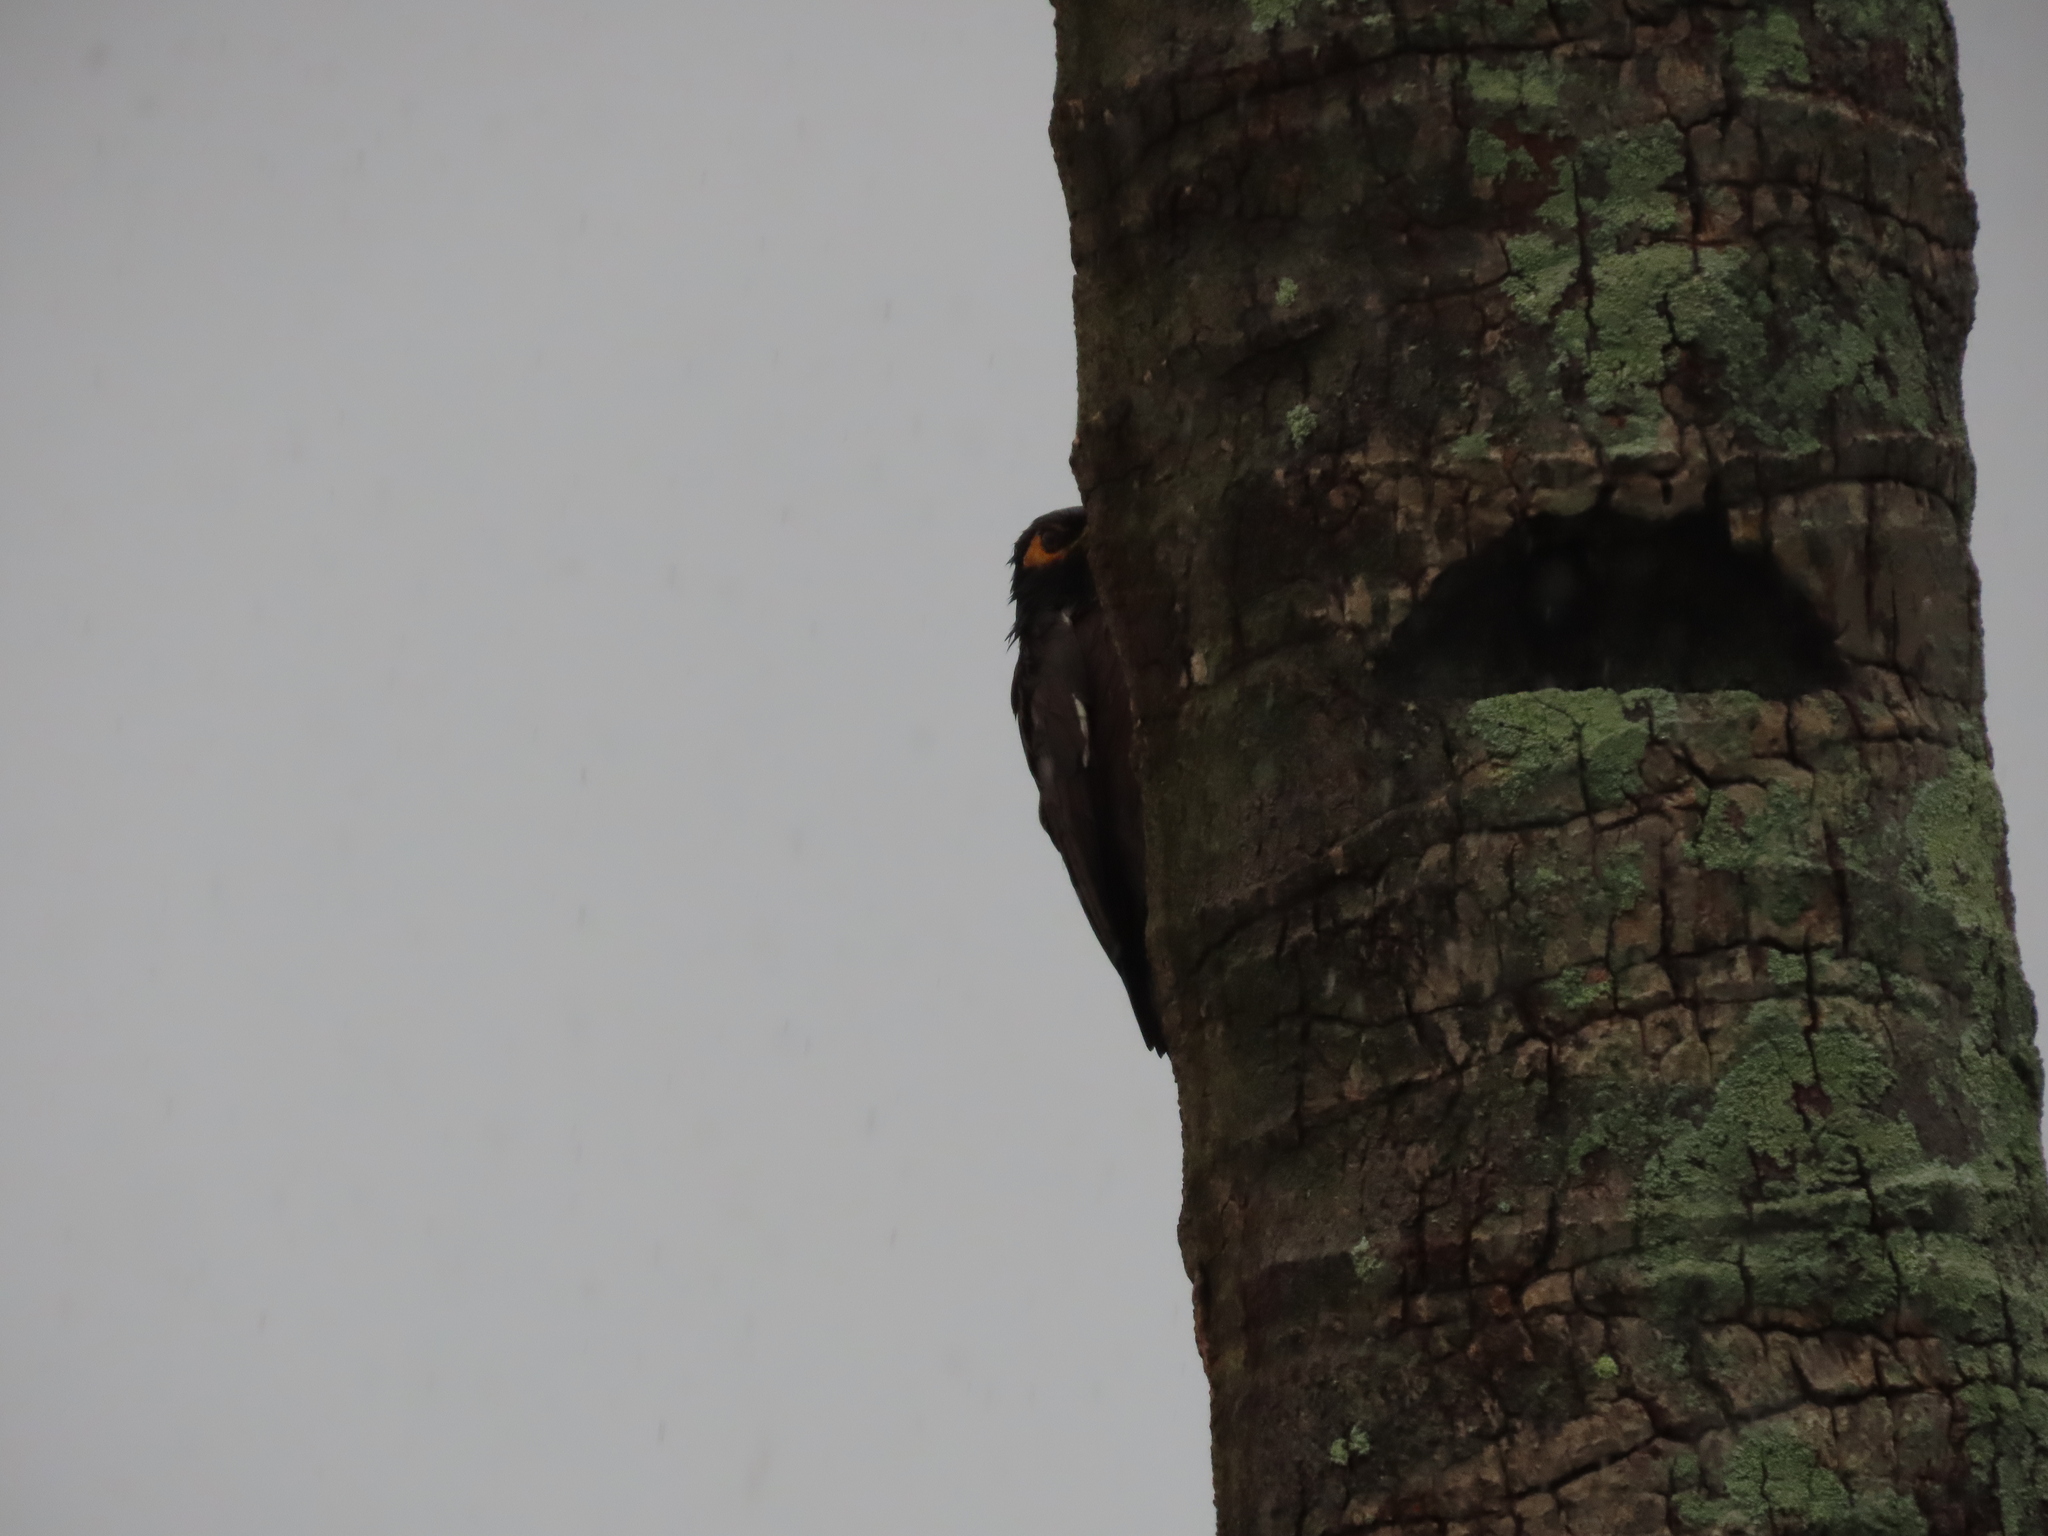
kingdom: Animalia
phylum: Chordata
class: Aves
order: Passeriformes
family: Sturnidae
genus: Acridotheres
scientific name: Acridotheres tristis
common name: Common myna
